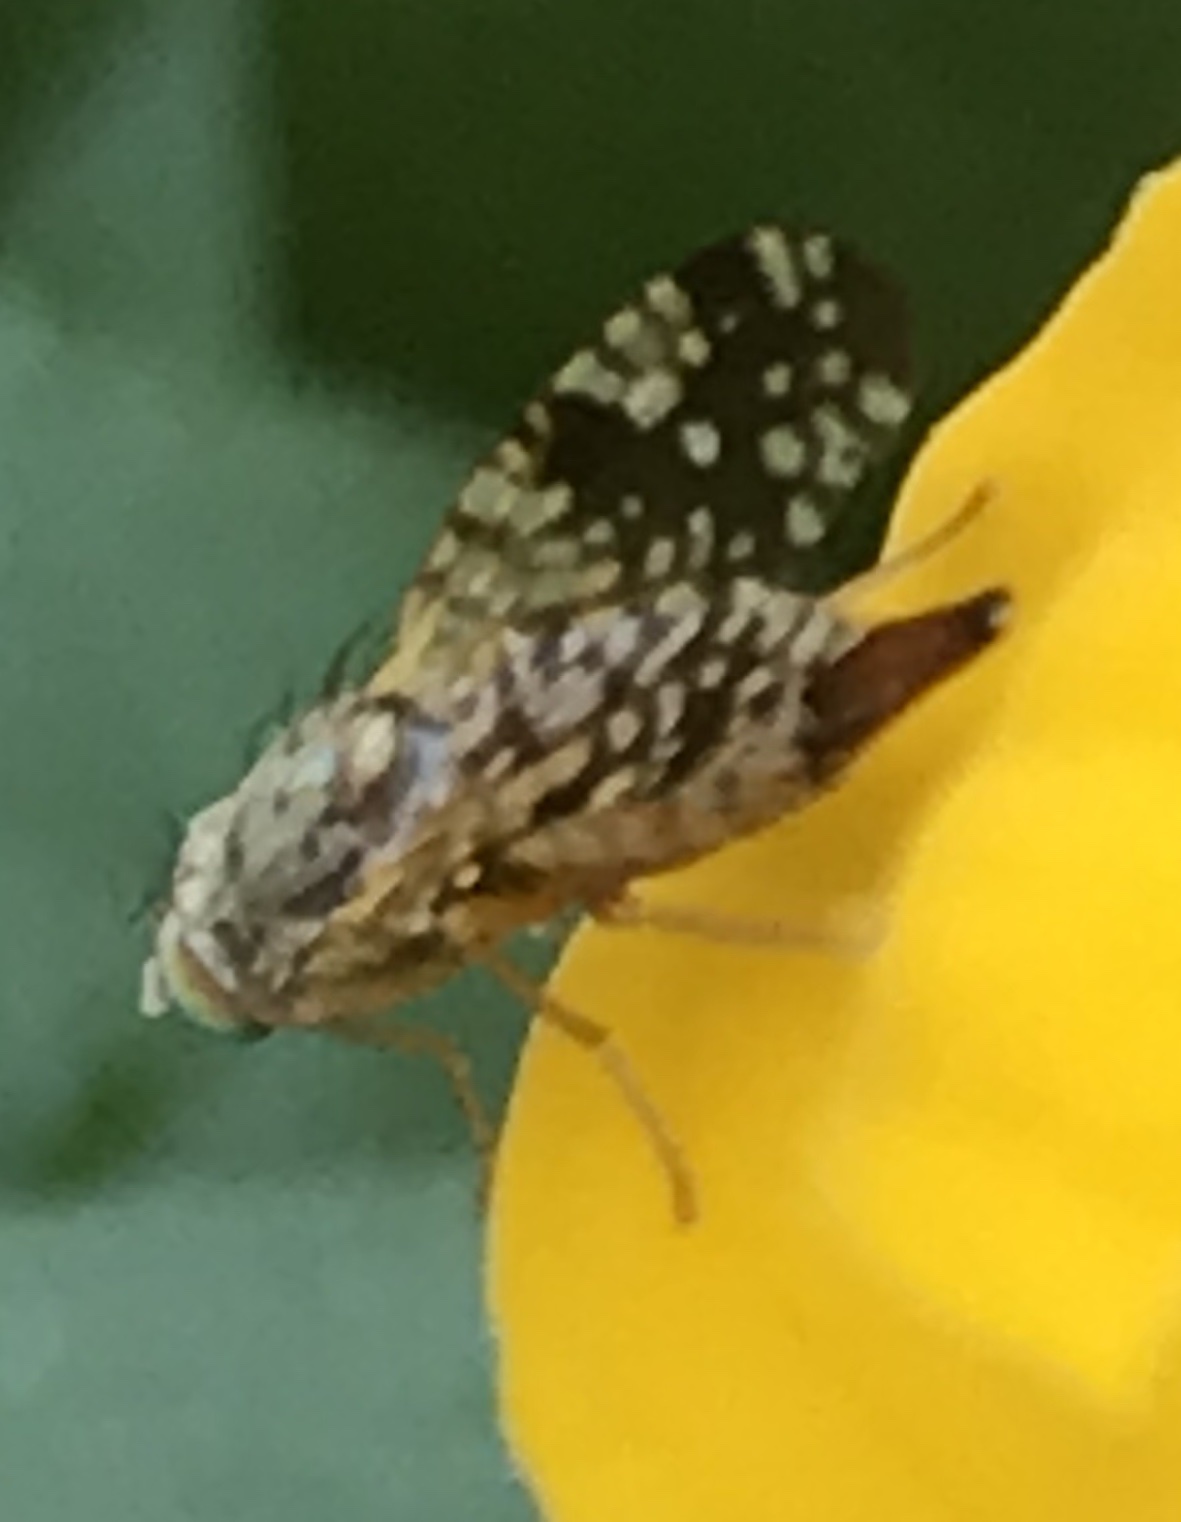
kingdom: Animalia
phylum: Arthropoda
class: Insecta
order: Diptera
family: Tephritidae
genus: Neotephritis
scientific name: Neotephritis finalis
